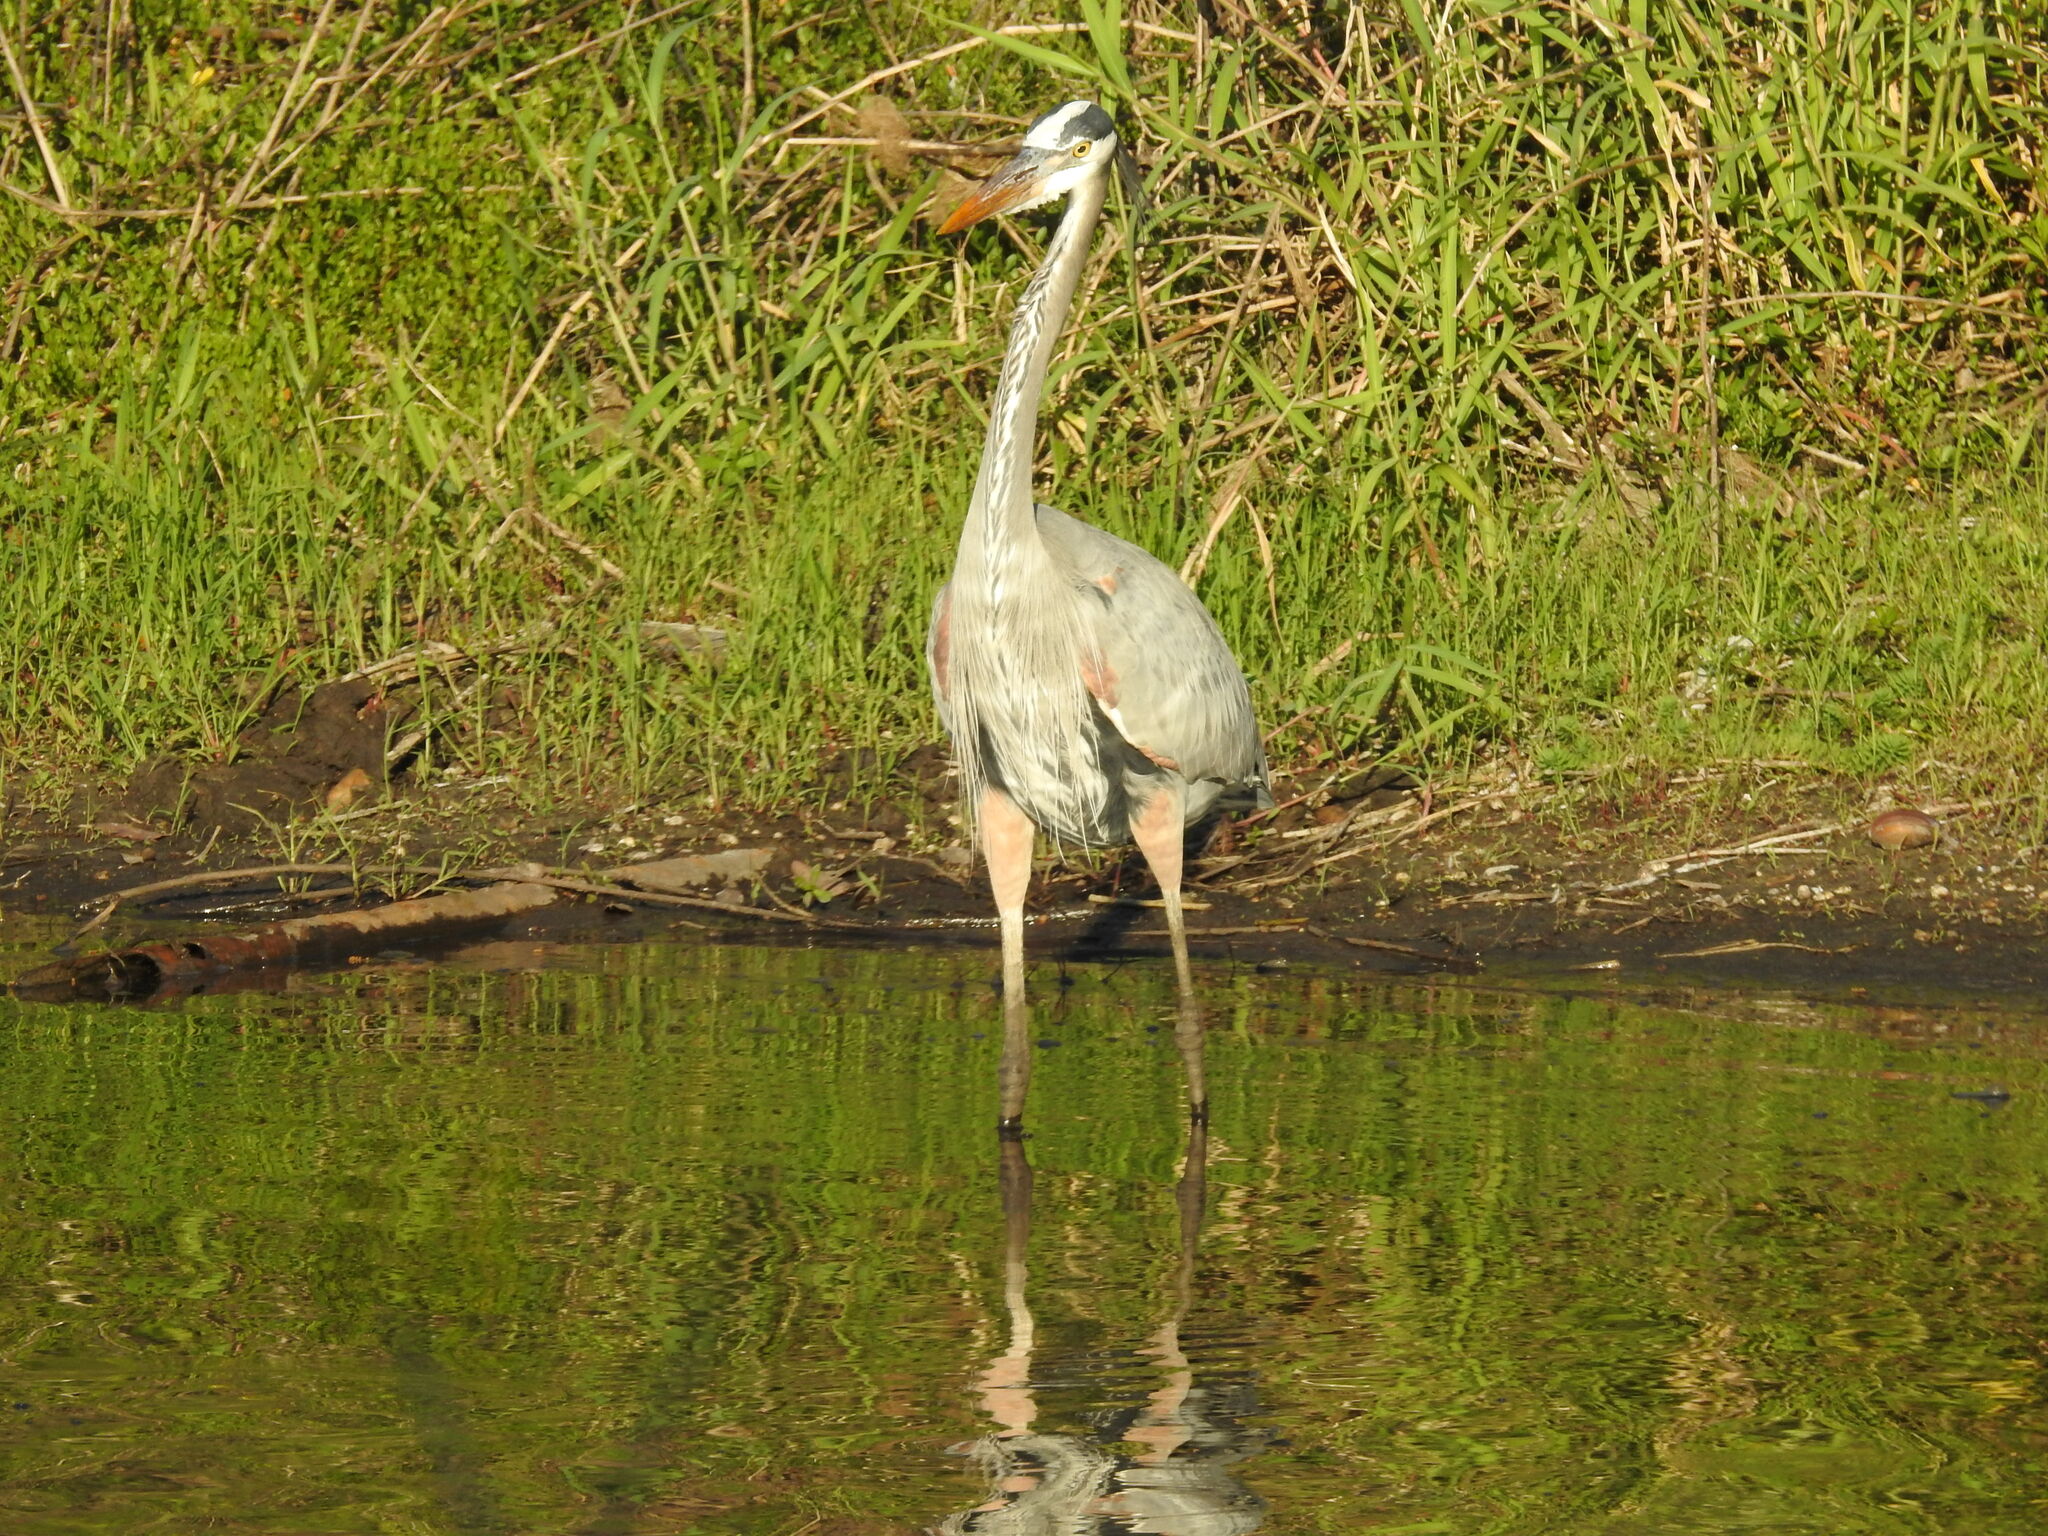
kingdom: Animalia
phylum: Chordata
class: Aves
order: Pelecaniformes
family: Ardeidae
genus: Ardea
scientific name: Ardea herodias
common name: Great blue heron
